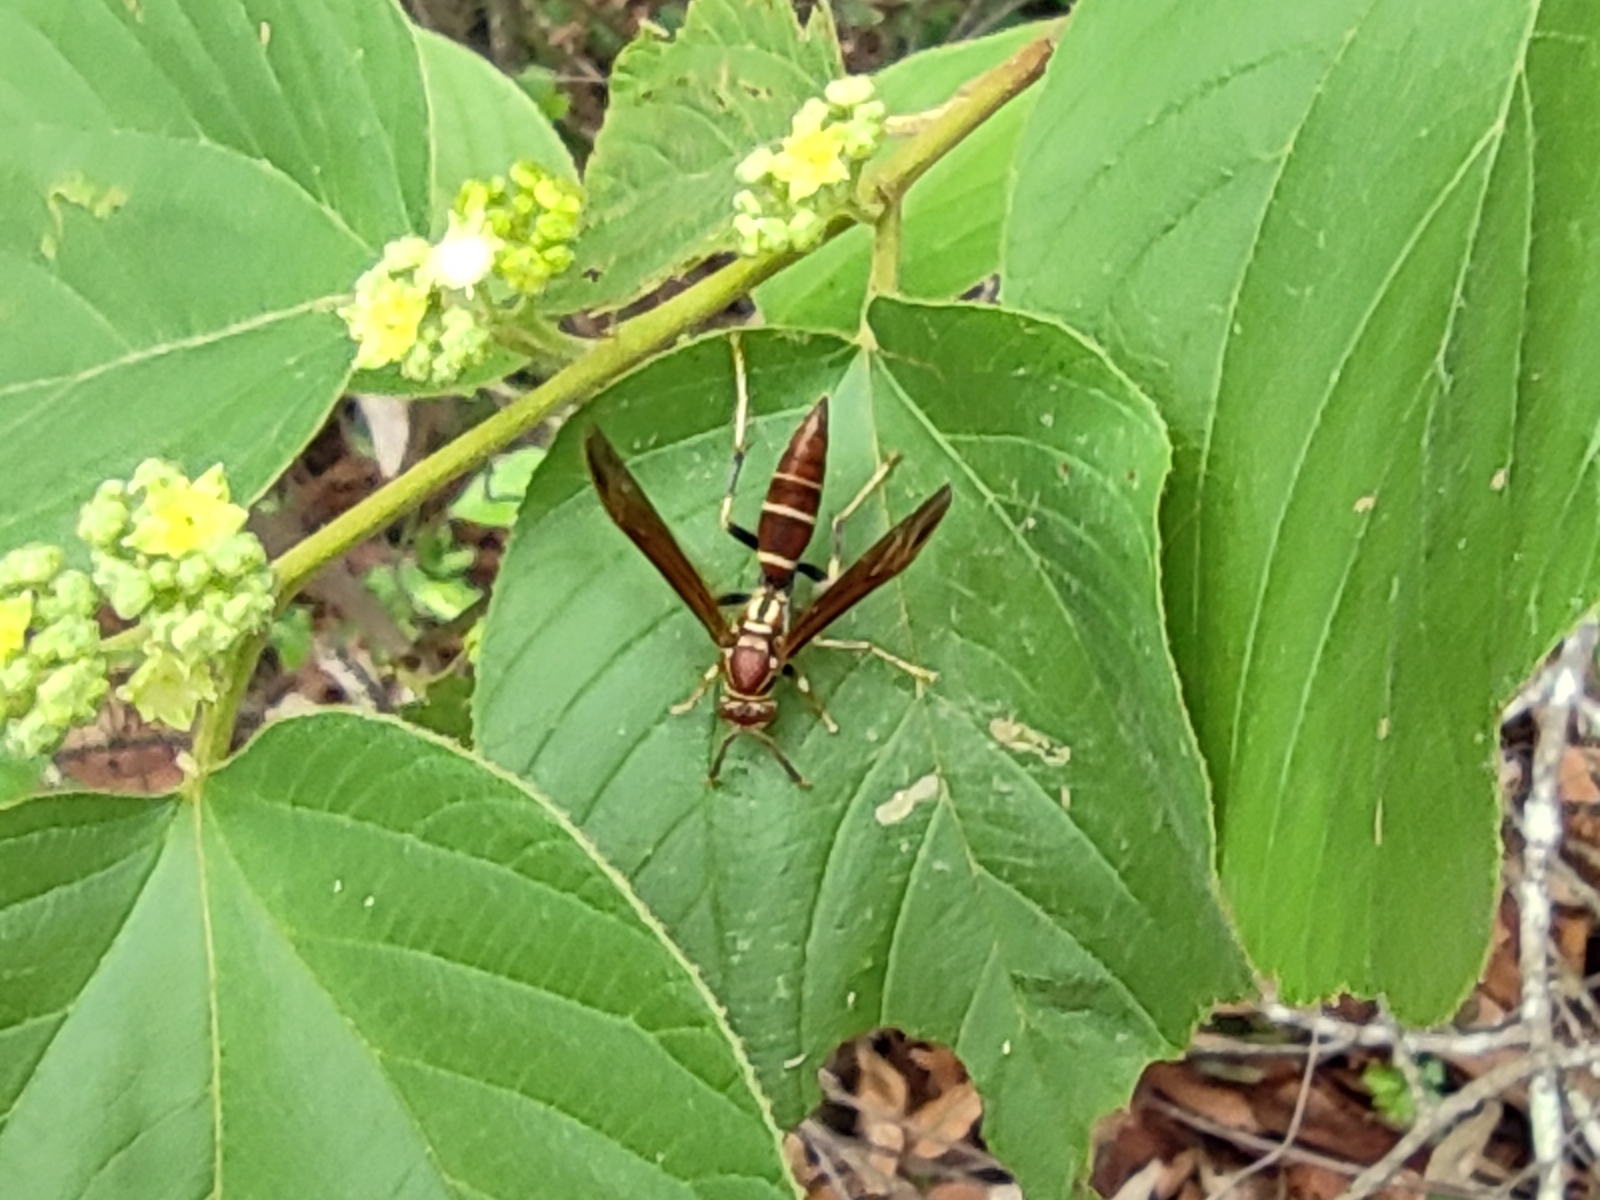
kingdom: Animalia
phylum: Arthropoda
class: Insecta
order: Hymenoptera
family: Eumenidae
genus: Polistes
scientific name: Polistes instabilis
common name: Unstable paper wasp
